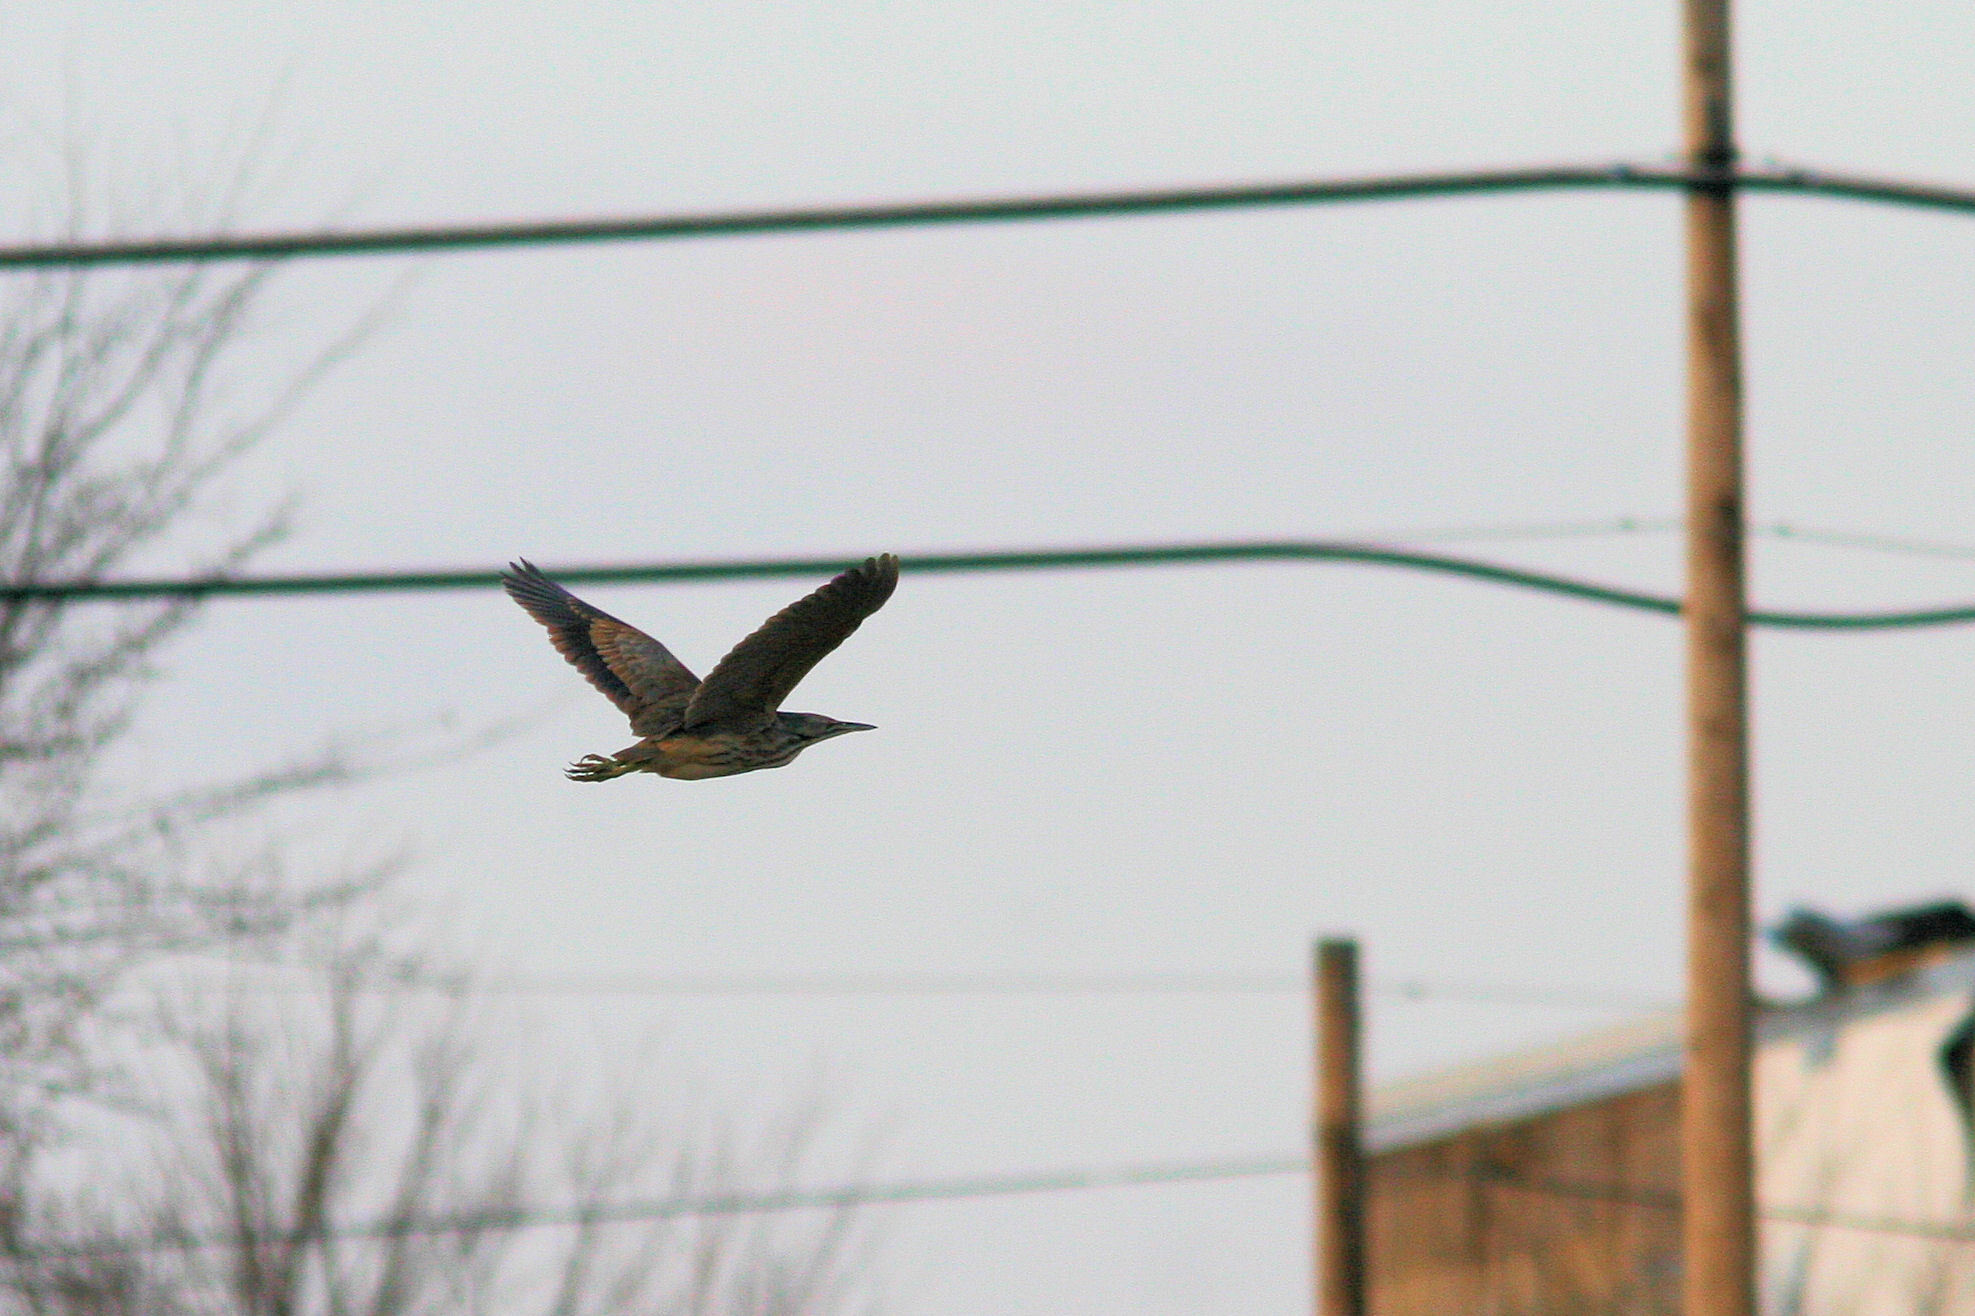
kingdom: Animalia
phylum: Chordata
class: Aves
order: Pelecaniformes
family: Ardeidae
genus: Botaurus
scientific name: Botaurus lentiginosus
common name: American bittern
